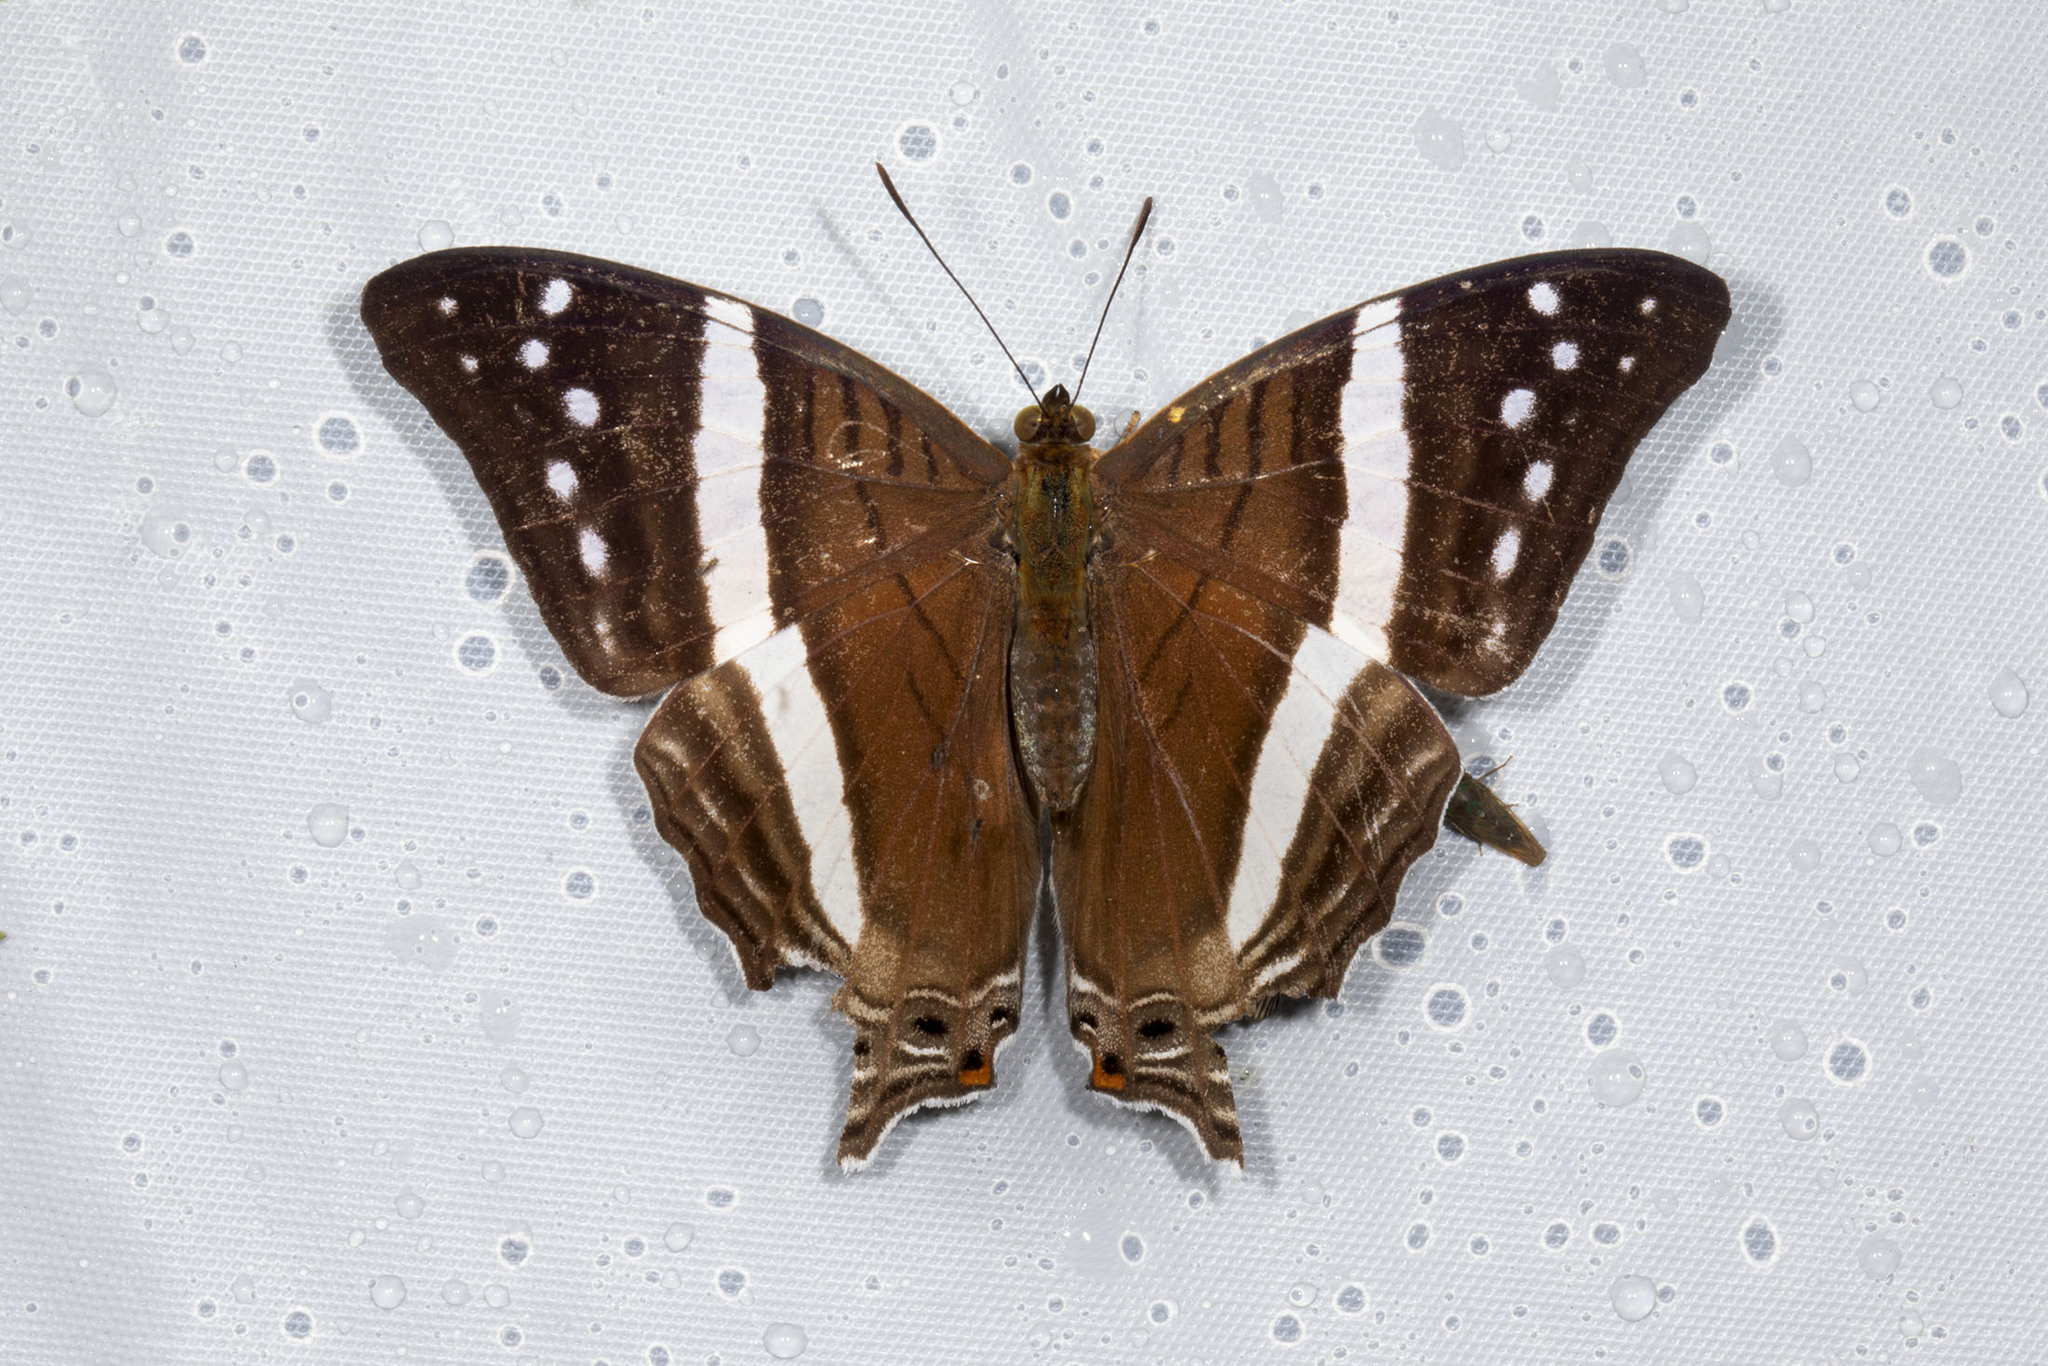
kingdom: Animalia
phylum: Arthropoda
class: Insecta
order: Lepidoptera
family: Nymphalidae
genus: Marpesia
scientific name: Marpesia crethon
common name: Crethon daggerwing
